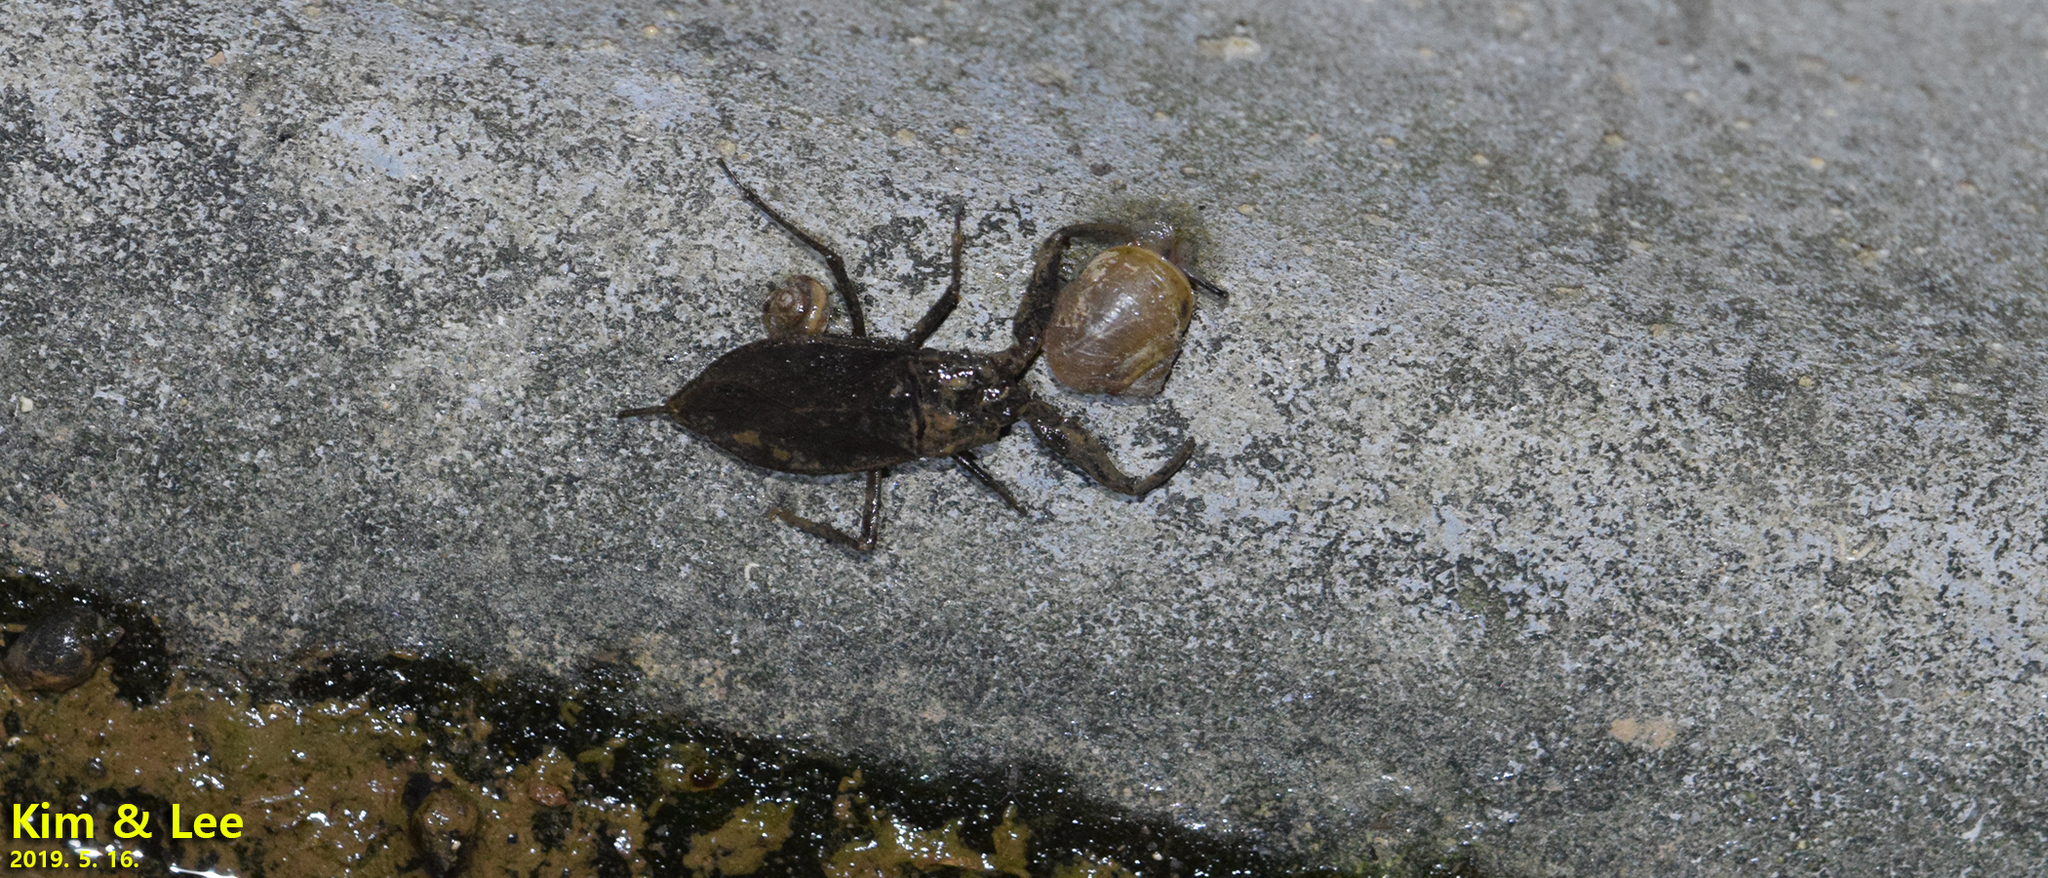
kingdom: Animalia
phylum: Arthropoda
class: Insecta
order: Hemiptera
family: Nepidae
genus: Nepa
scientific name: Nepa hoffmanni
